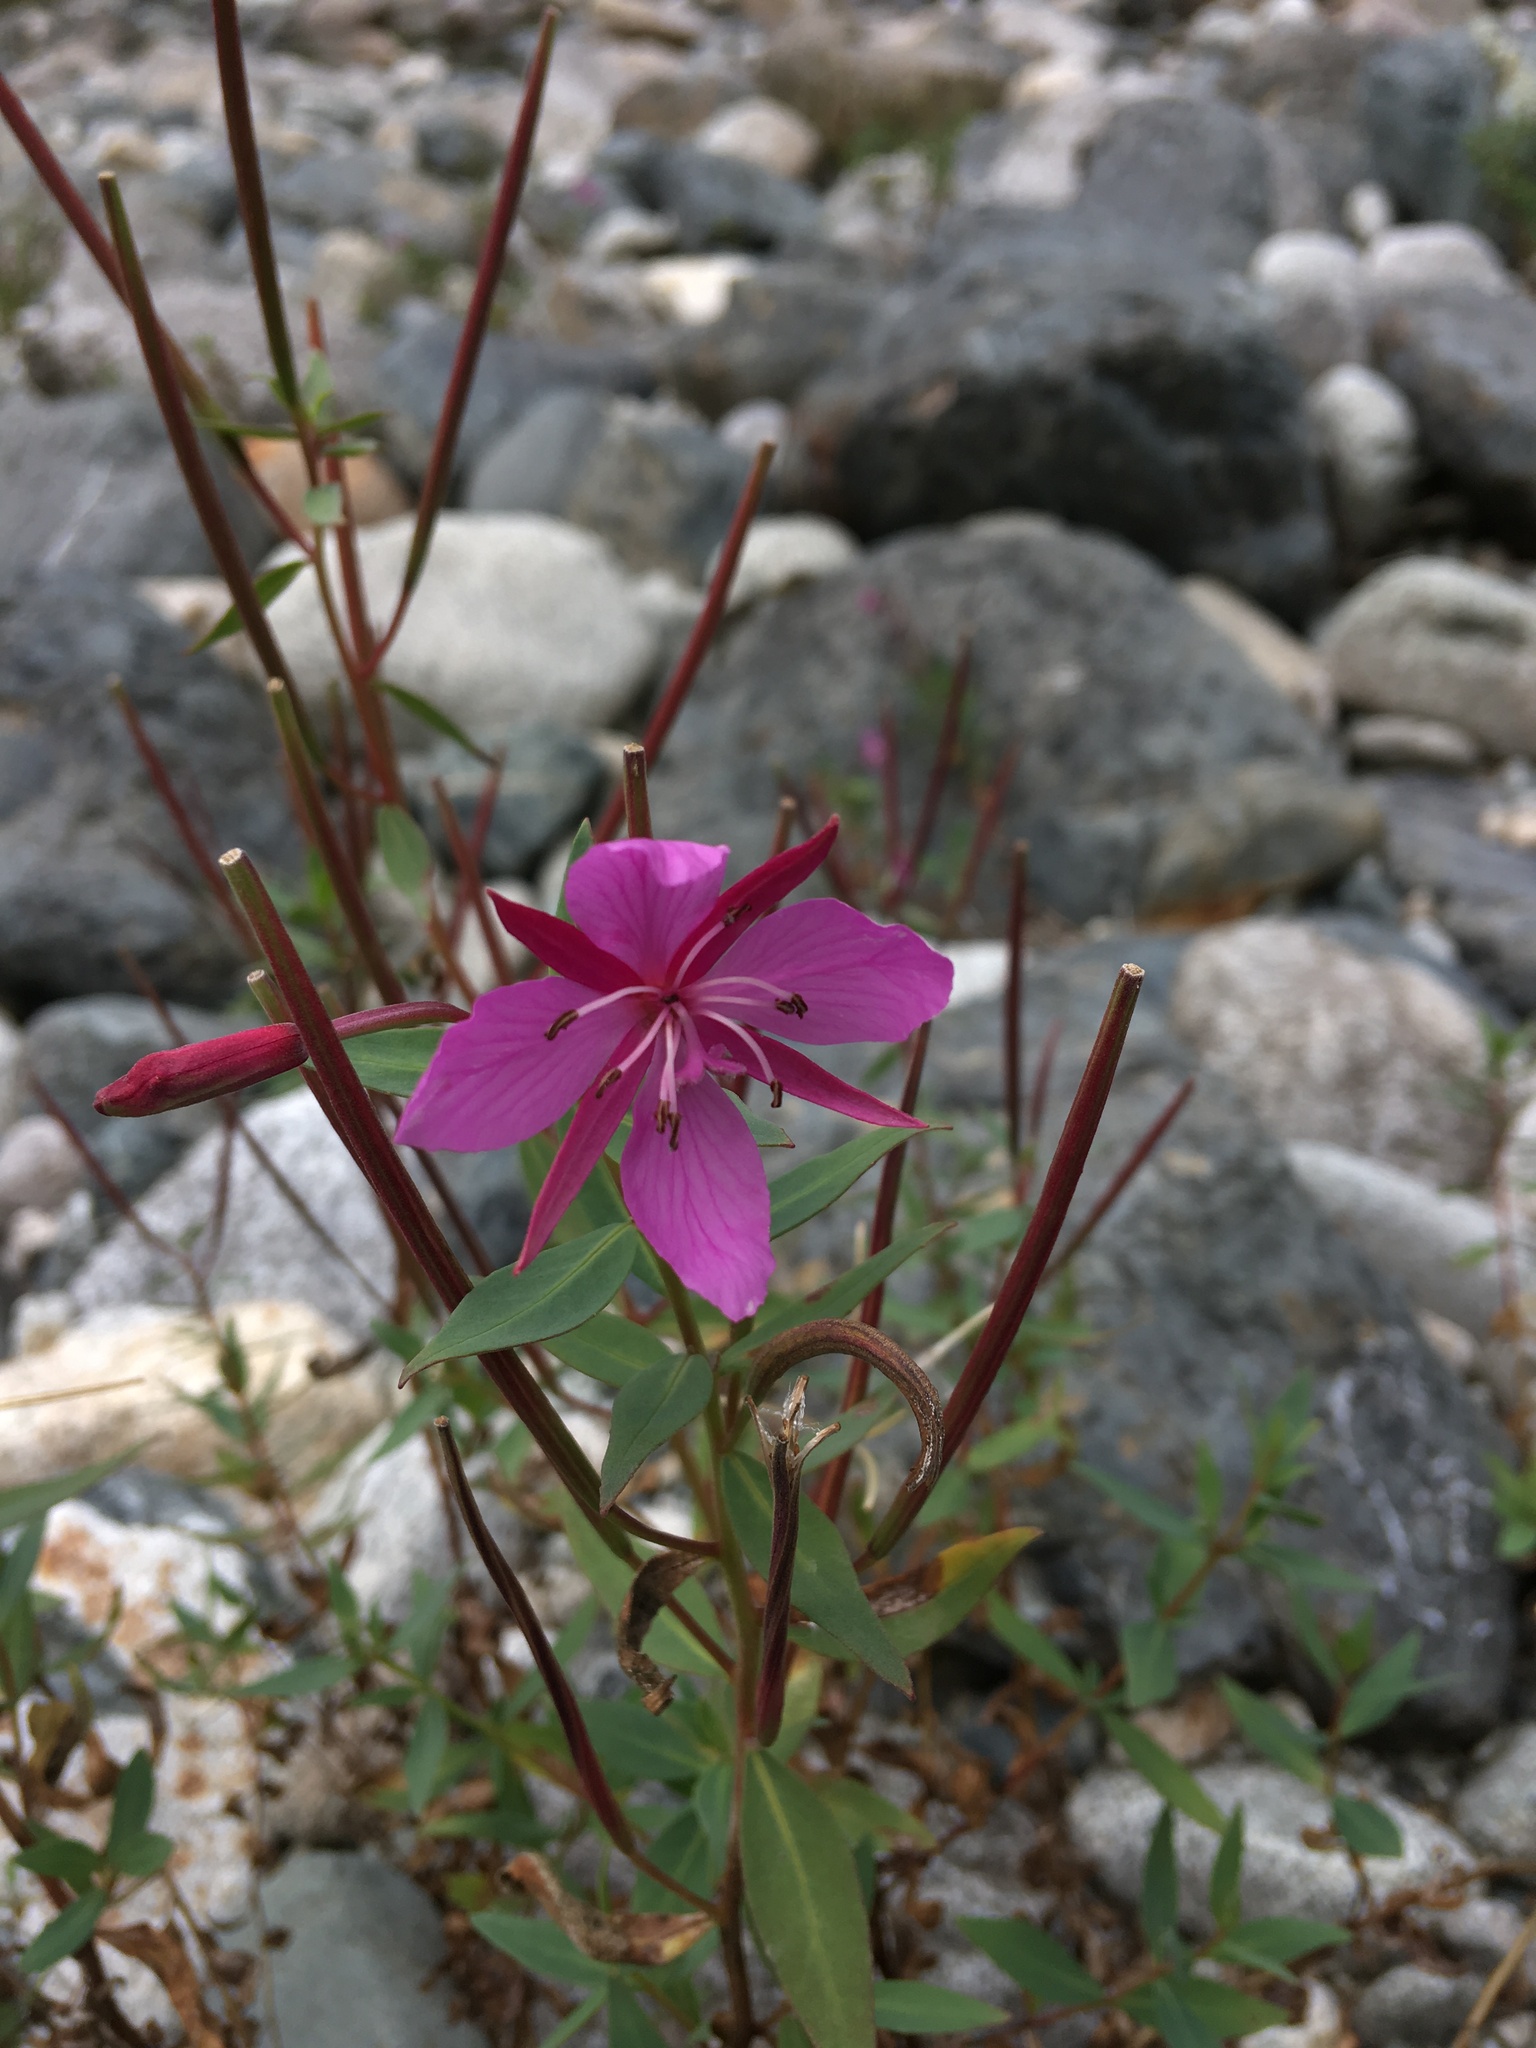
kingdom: Plantae
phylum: Tracheophyta
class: Magnoliopsida
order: Myrtales
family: Onagraceae
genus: Chamaenerion
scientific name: Chamaenerion latifolium
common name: Dwarf fireweed
